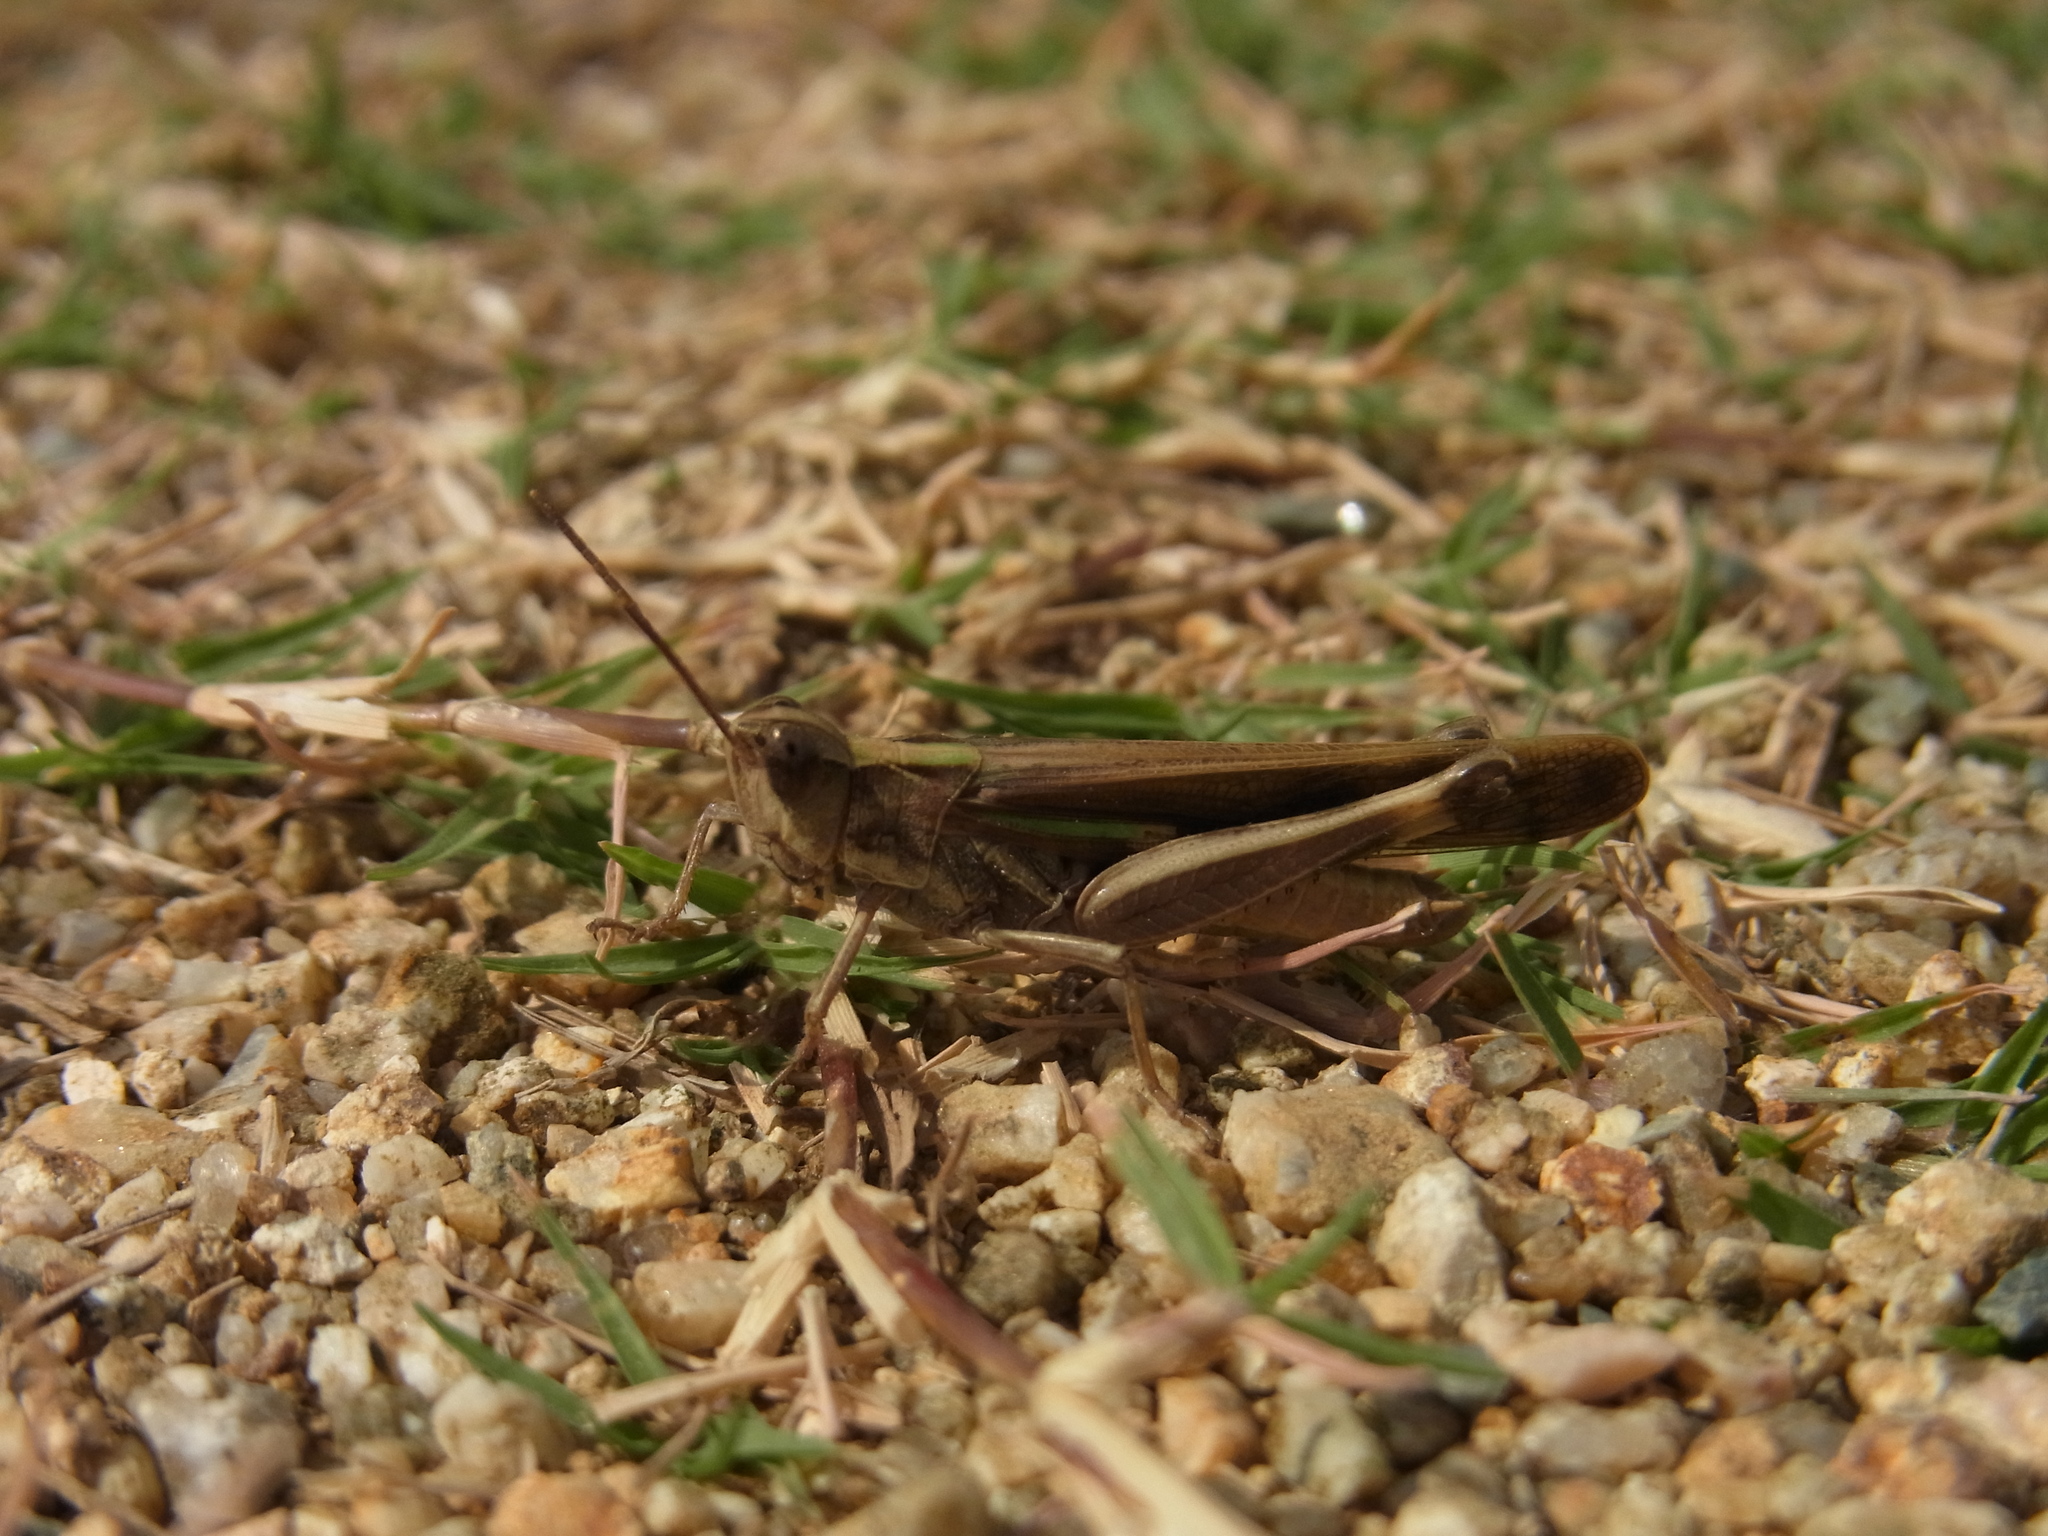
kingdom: Animalia
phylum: Arthropoda
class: Insecta
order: Orthoptera
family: Acrididae
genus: Aiolopus
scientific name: Aiolopus thalassinus
